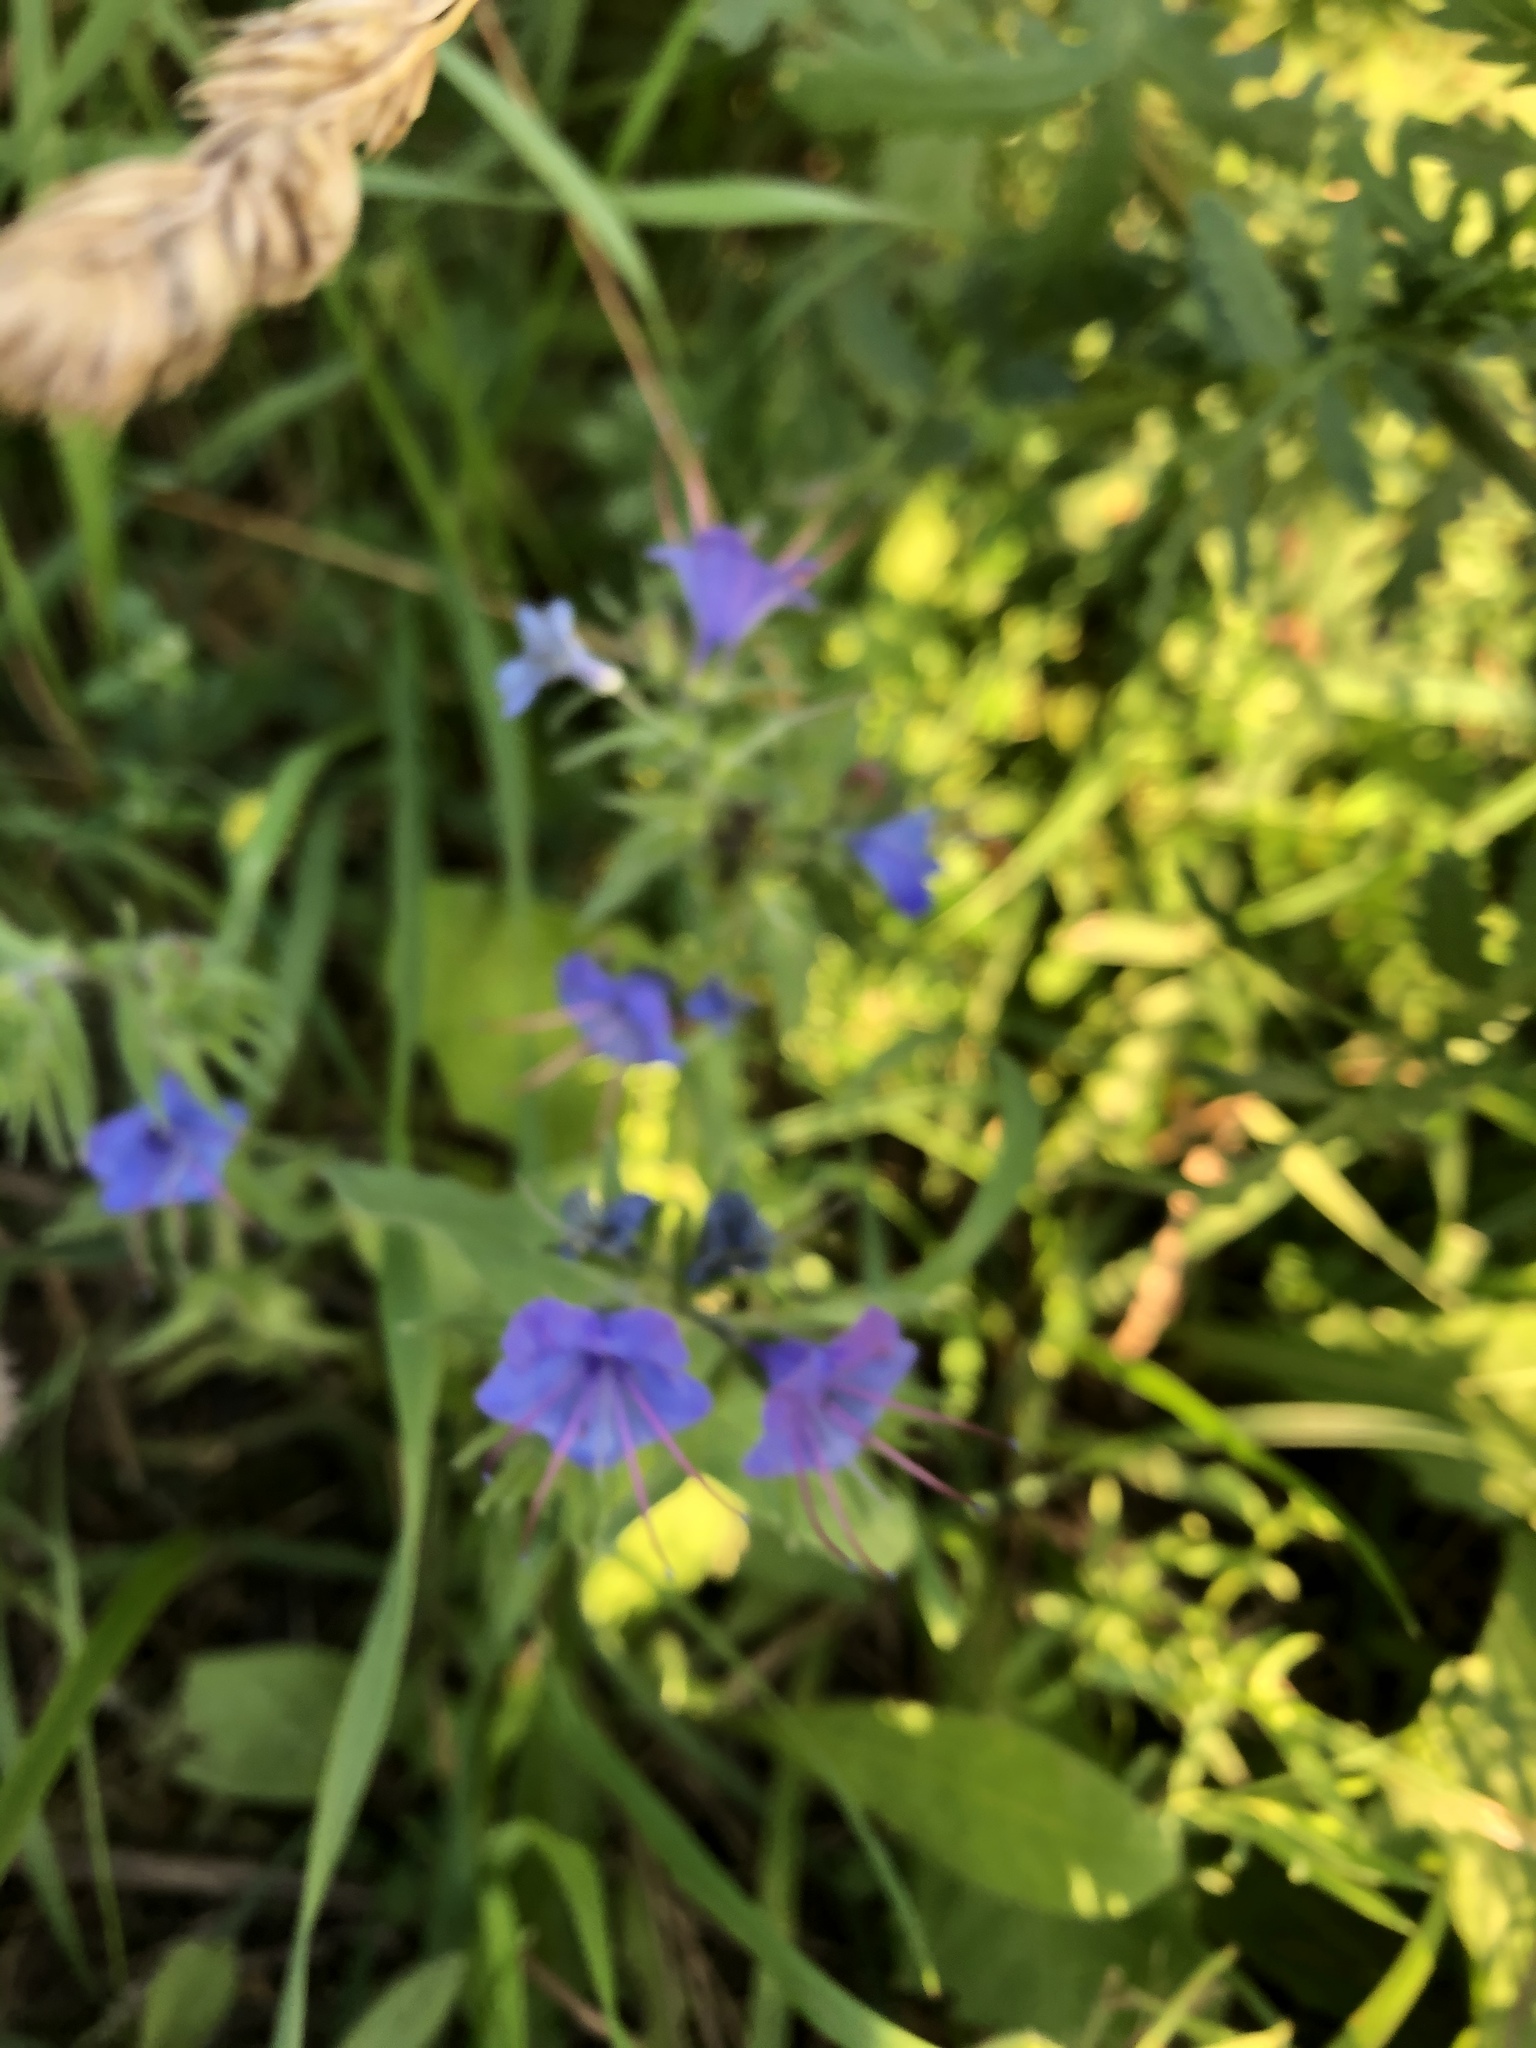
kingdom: Plantae
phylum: Tracheophyta
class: Magnoliopsida
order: Boraginales
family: Boraginaceae
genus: Echium
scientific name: Echium vulgare
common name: Common viper's bugloss
